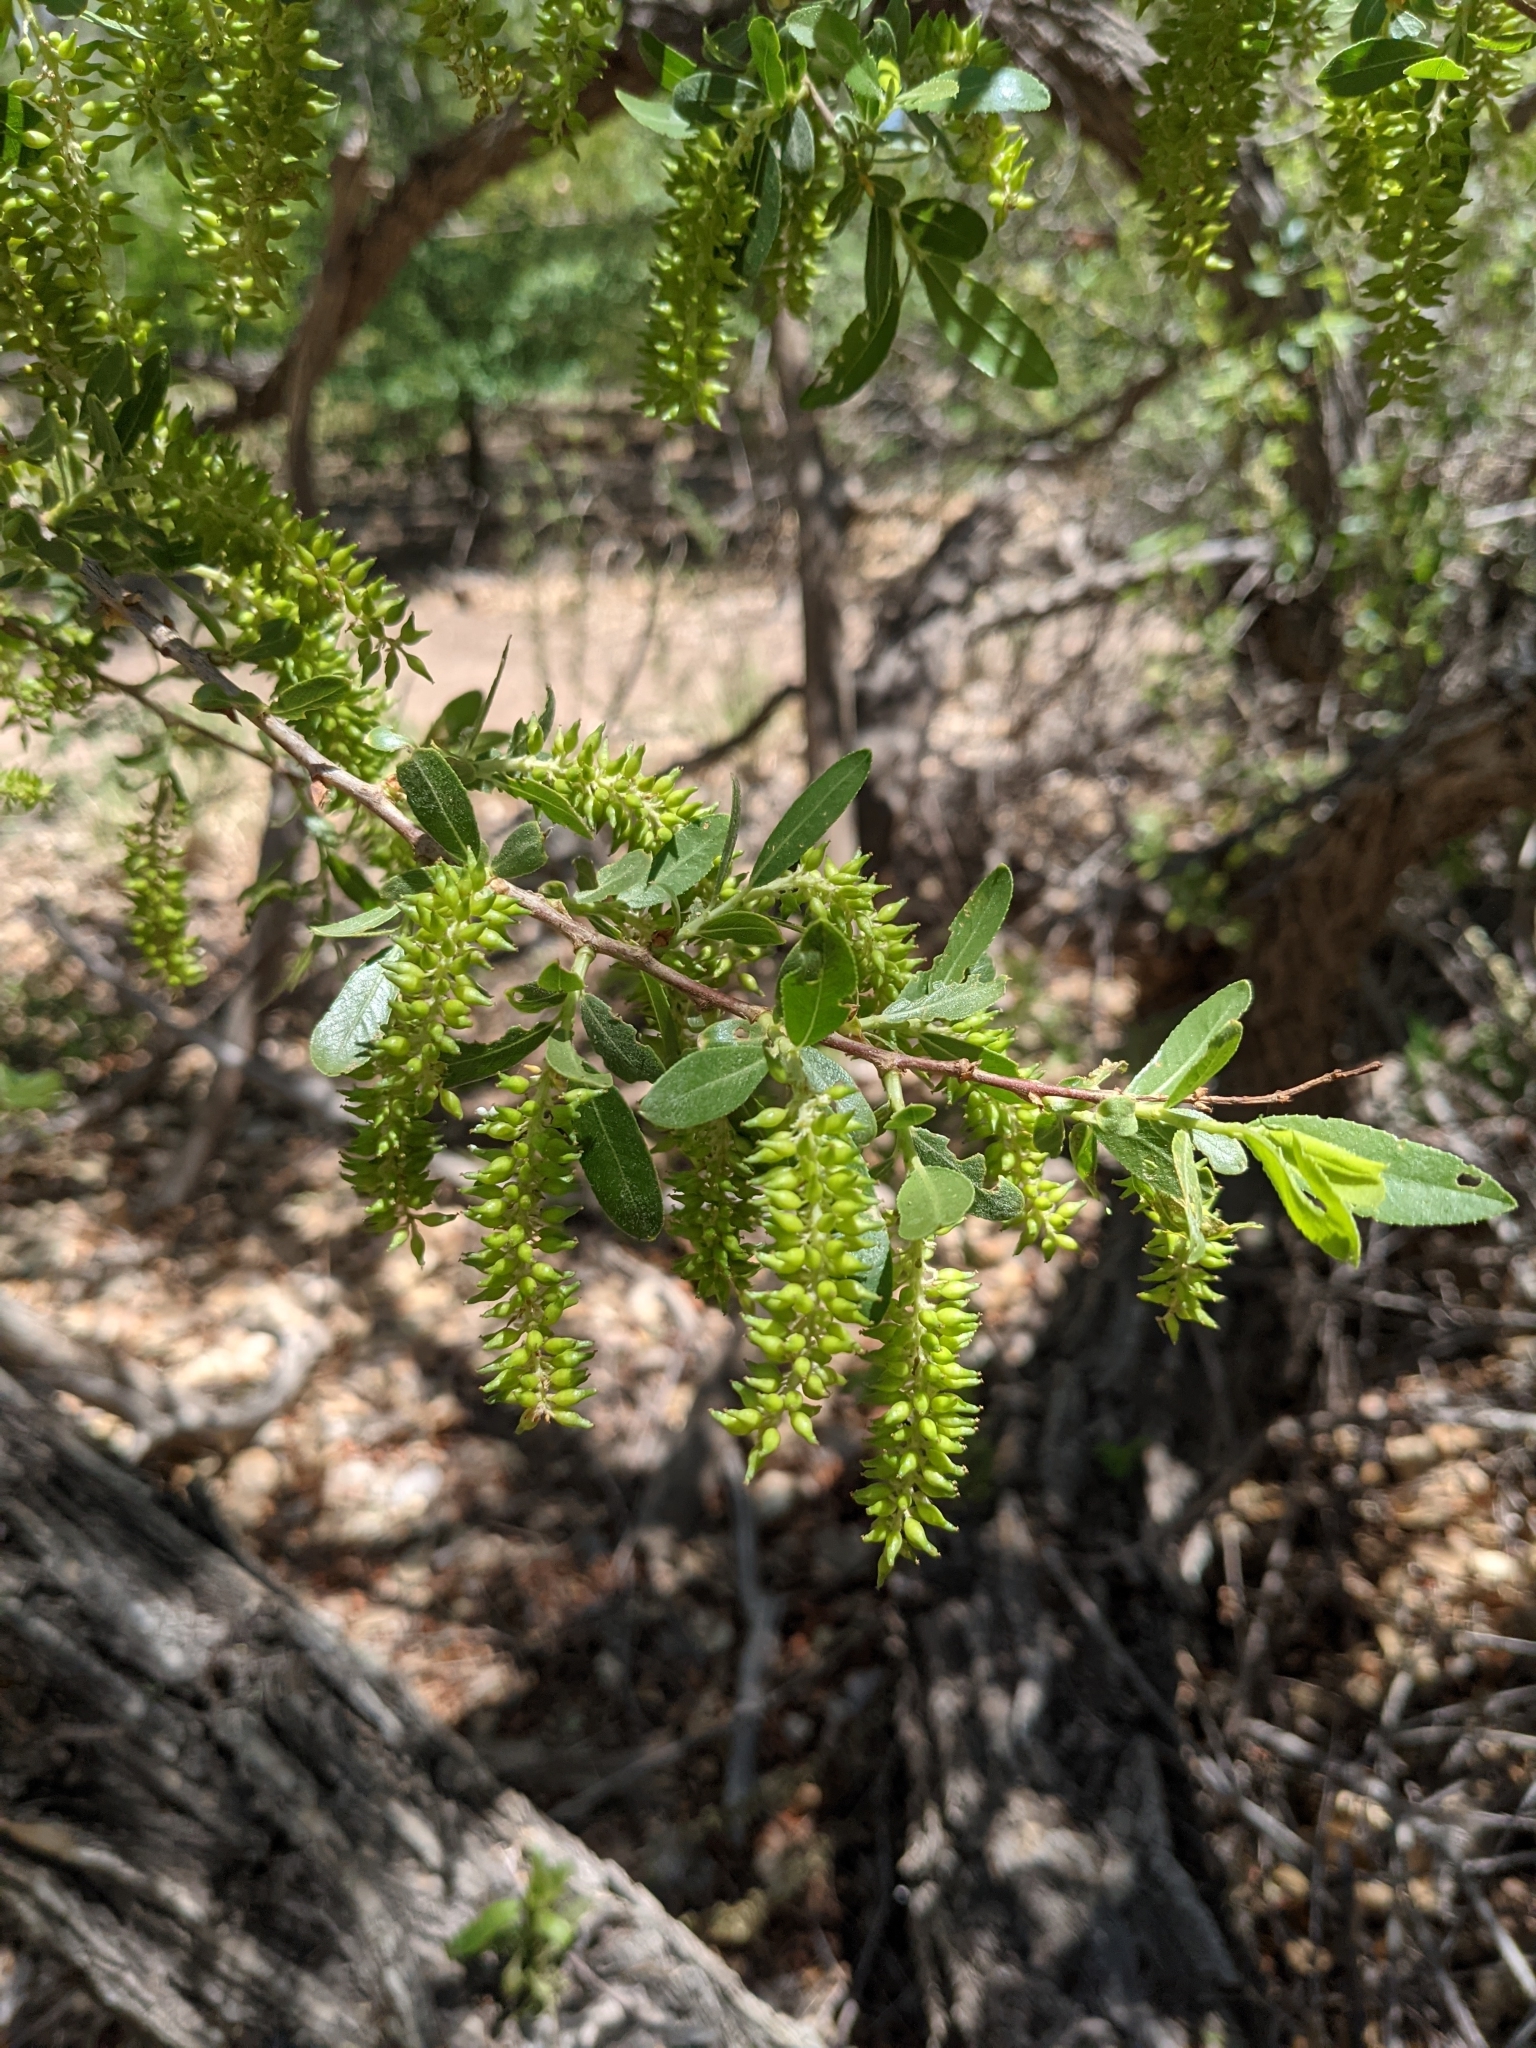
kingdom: Plantae
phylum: Tracheophyta
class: Magnoliopsida
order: Malpighiales
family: Salicaceae
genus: Salix
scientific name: Salix gooddingii
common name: Goodding's willow
